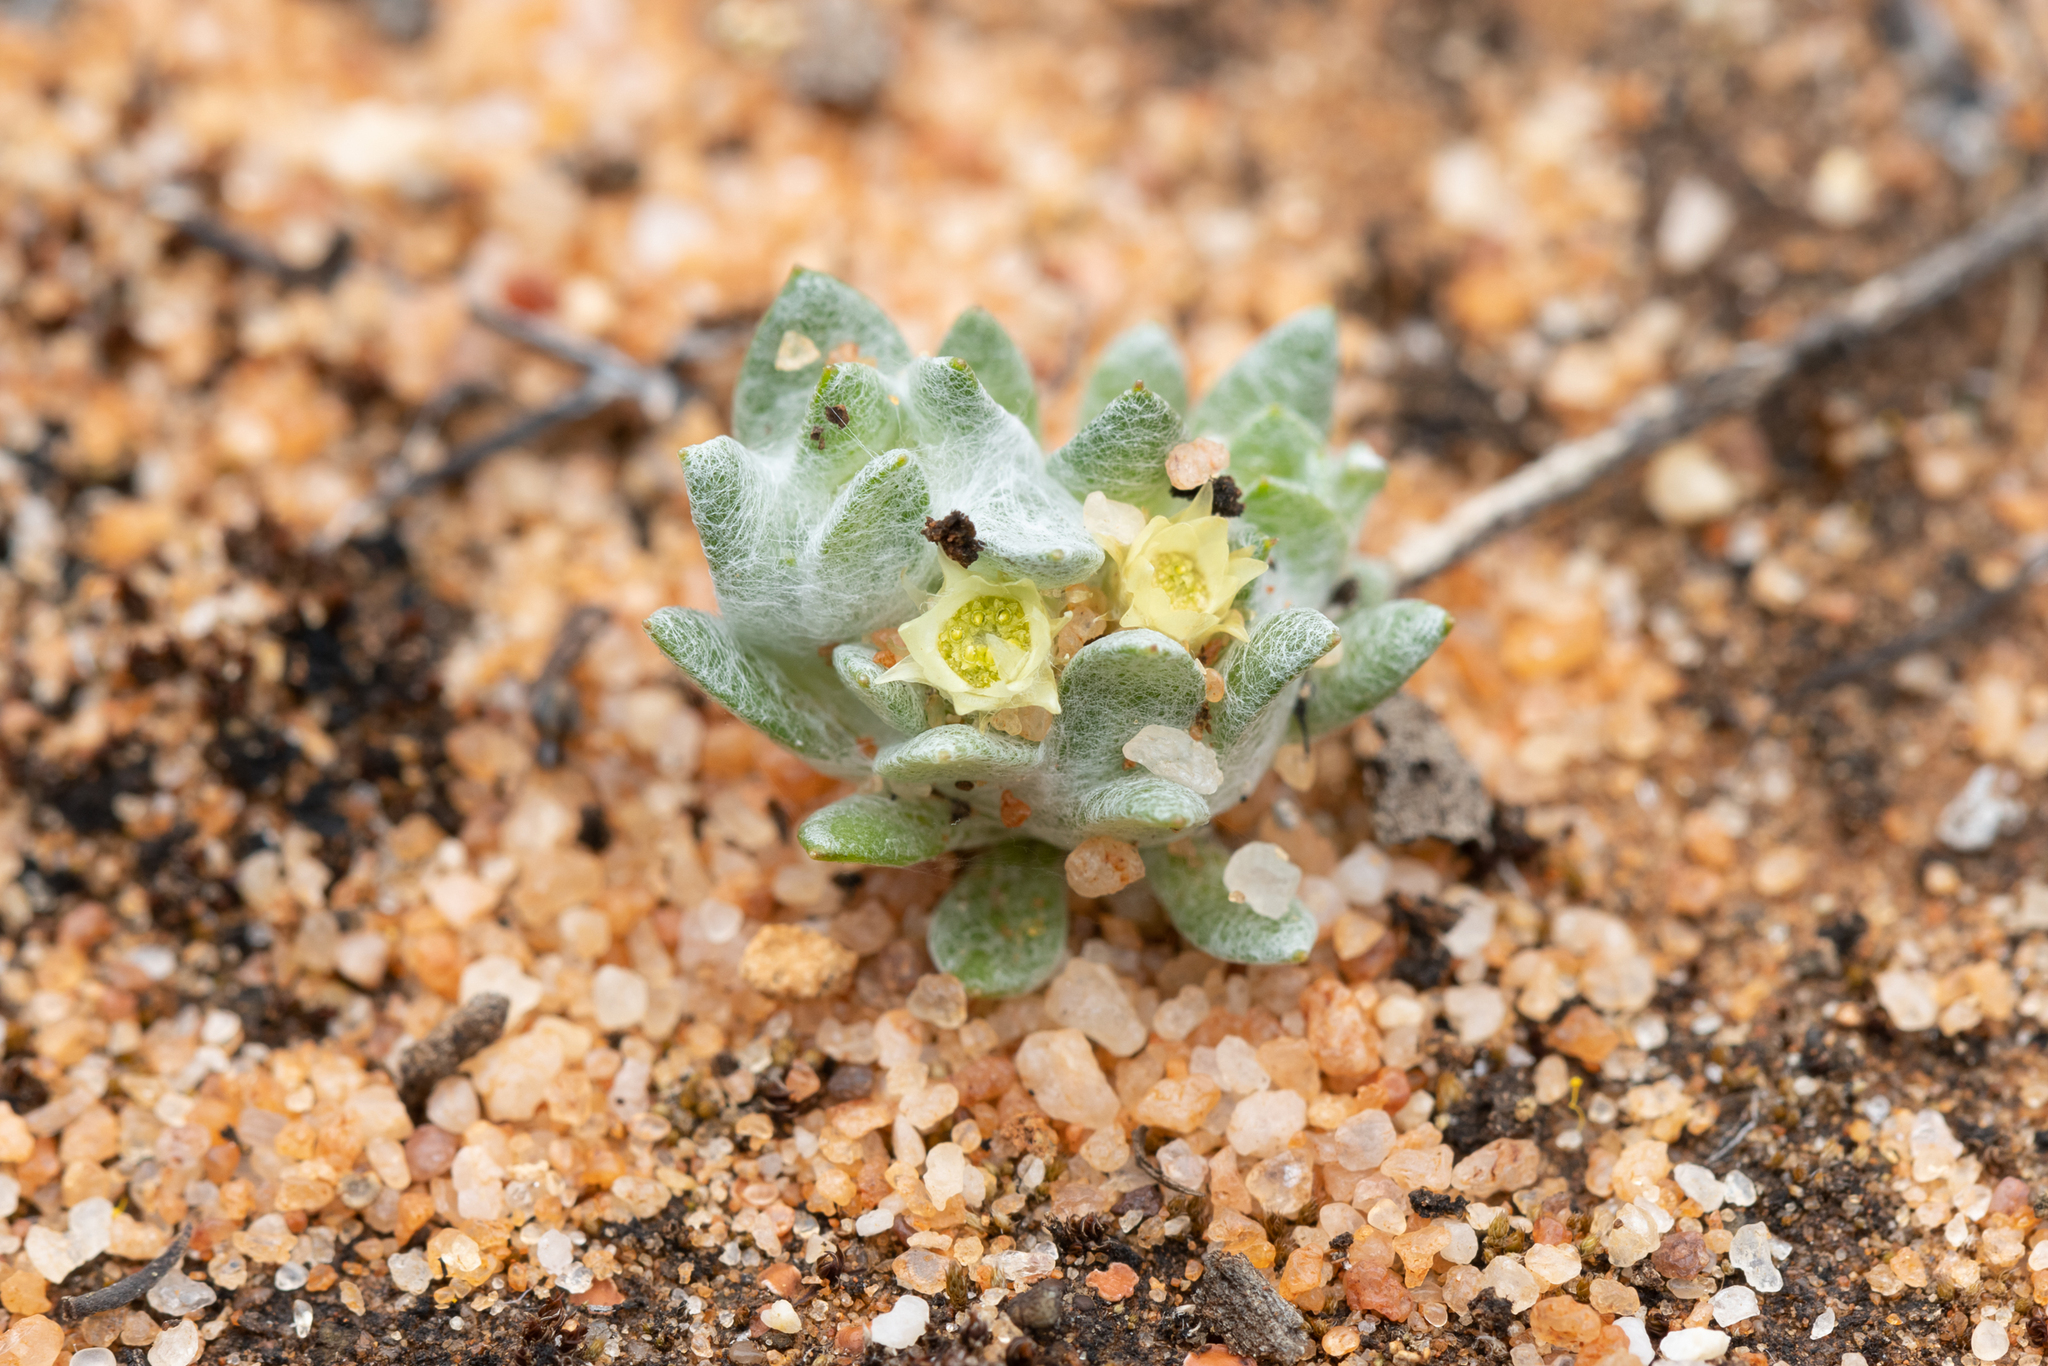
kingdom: Plantae
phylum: Tracheophyta
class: Magnoliopsida
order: Asterales
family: Asteraceae
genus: Actinobole
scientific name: Actinobole uliginosum
